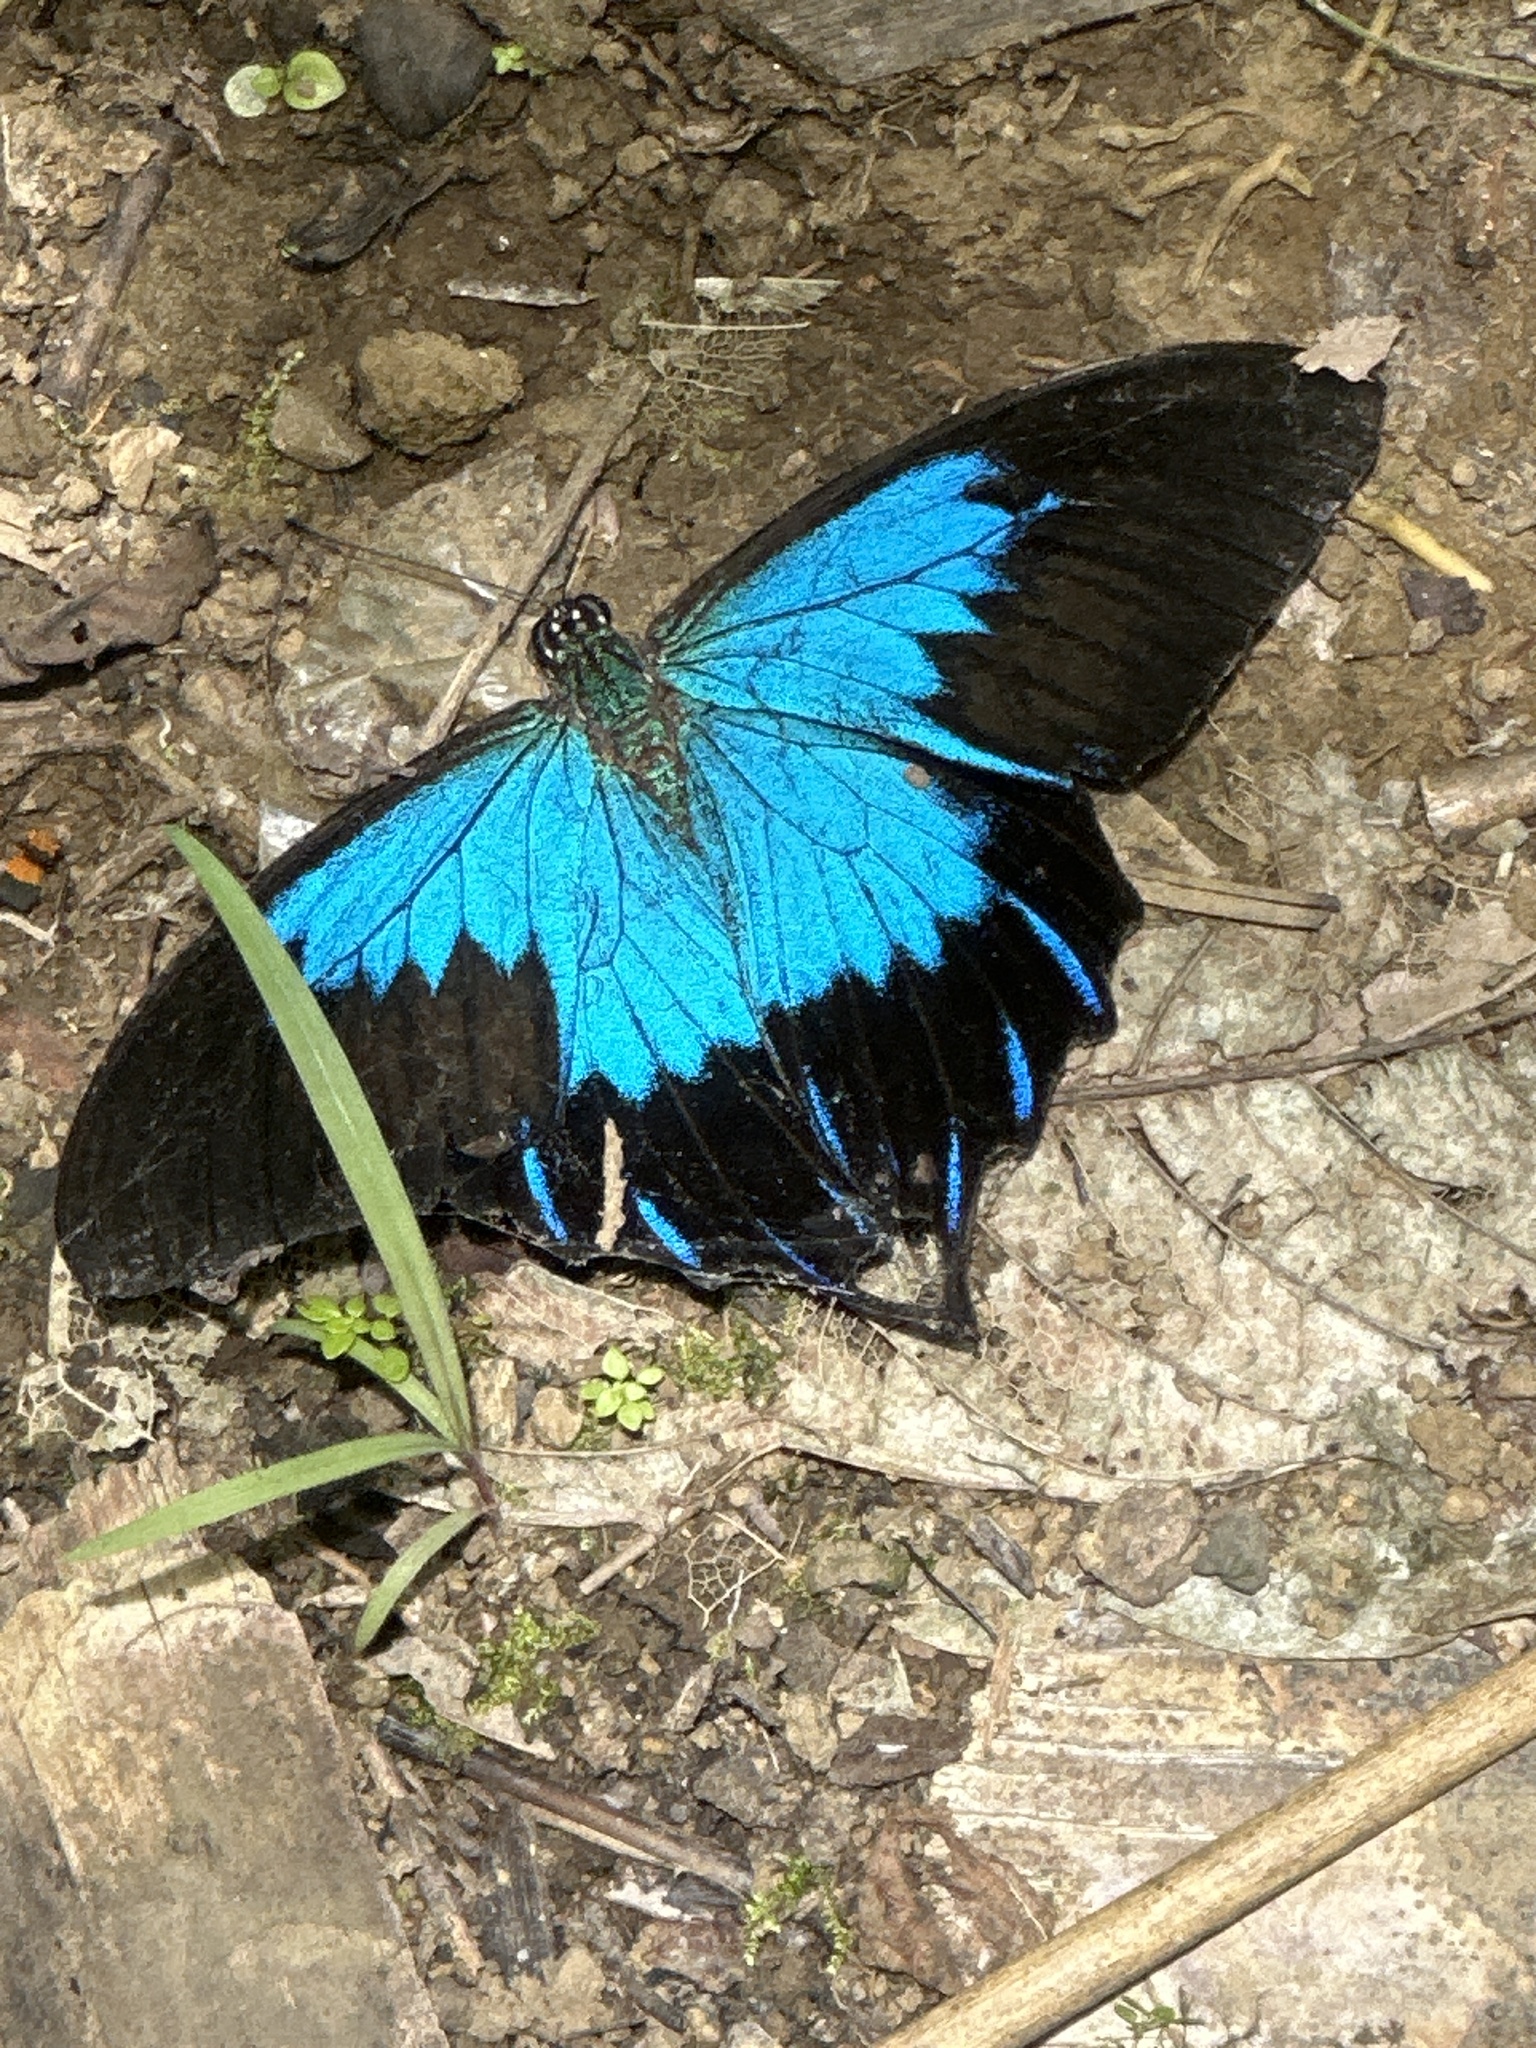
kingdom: Animalia
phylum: Arthropoda
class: Insecta
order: Lepidoptera
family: Papilionidae
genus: Papilio
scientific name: Papilio ulysses
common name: Blue emperor
